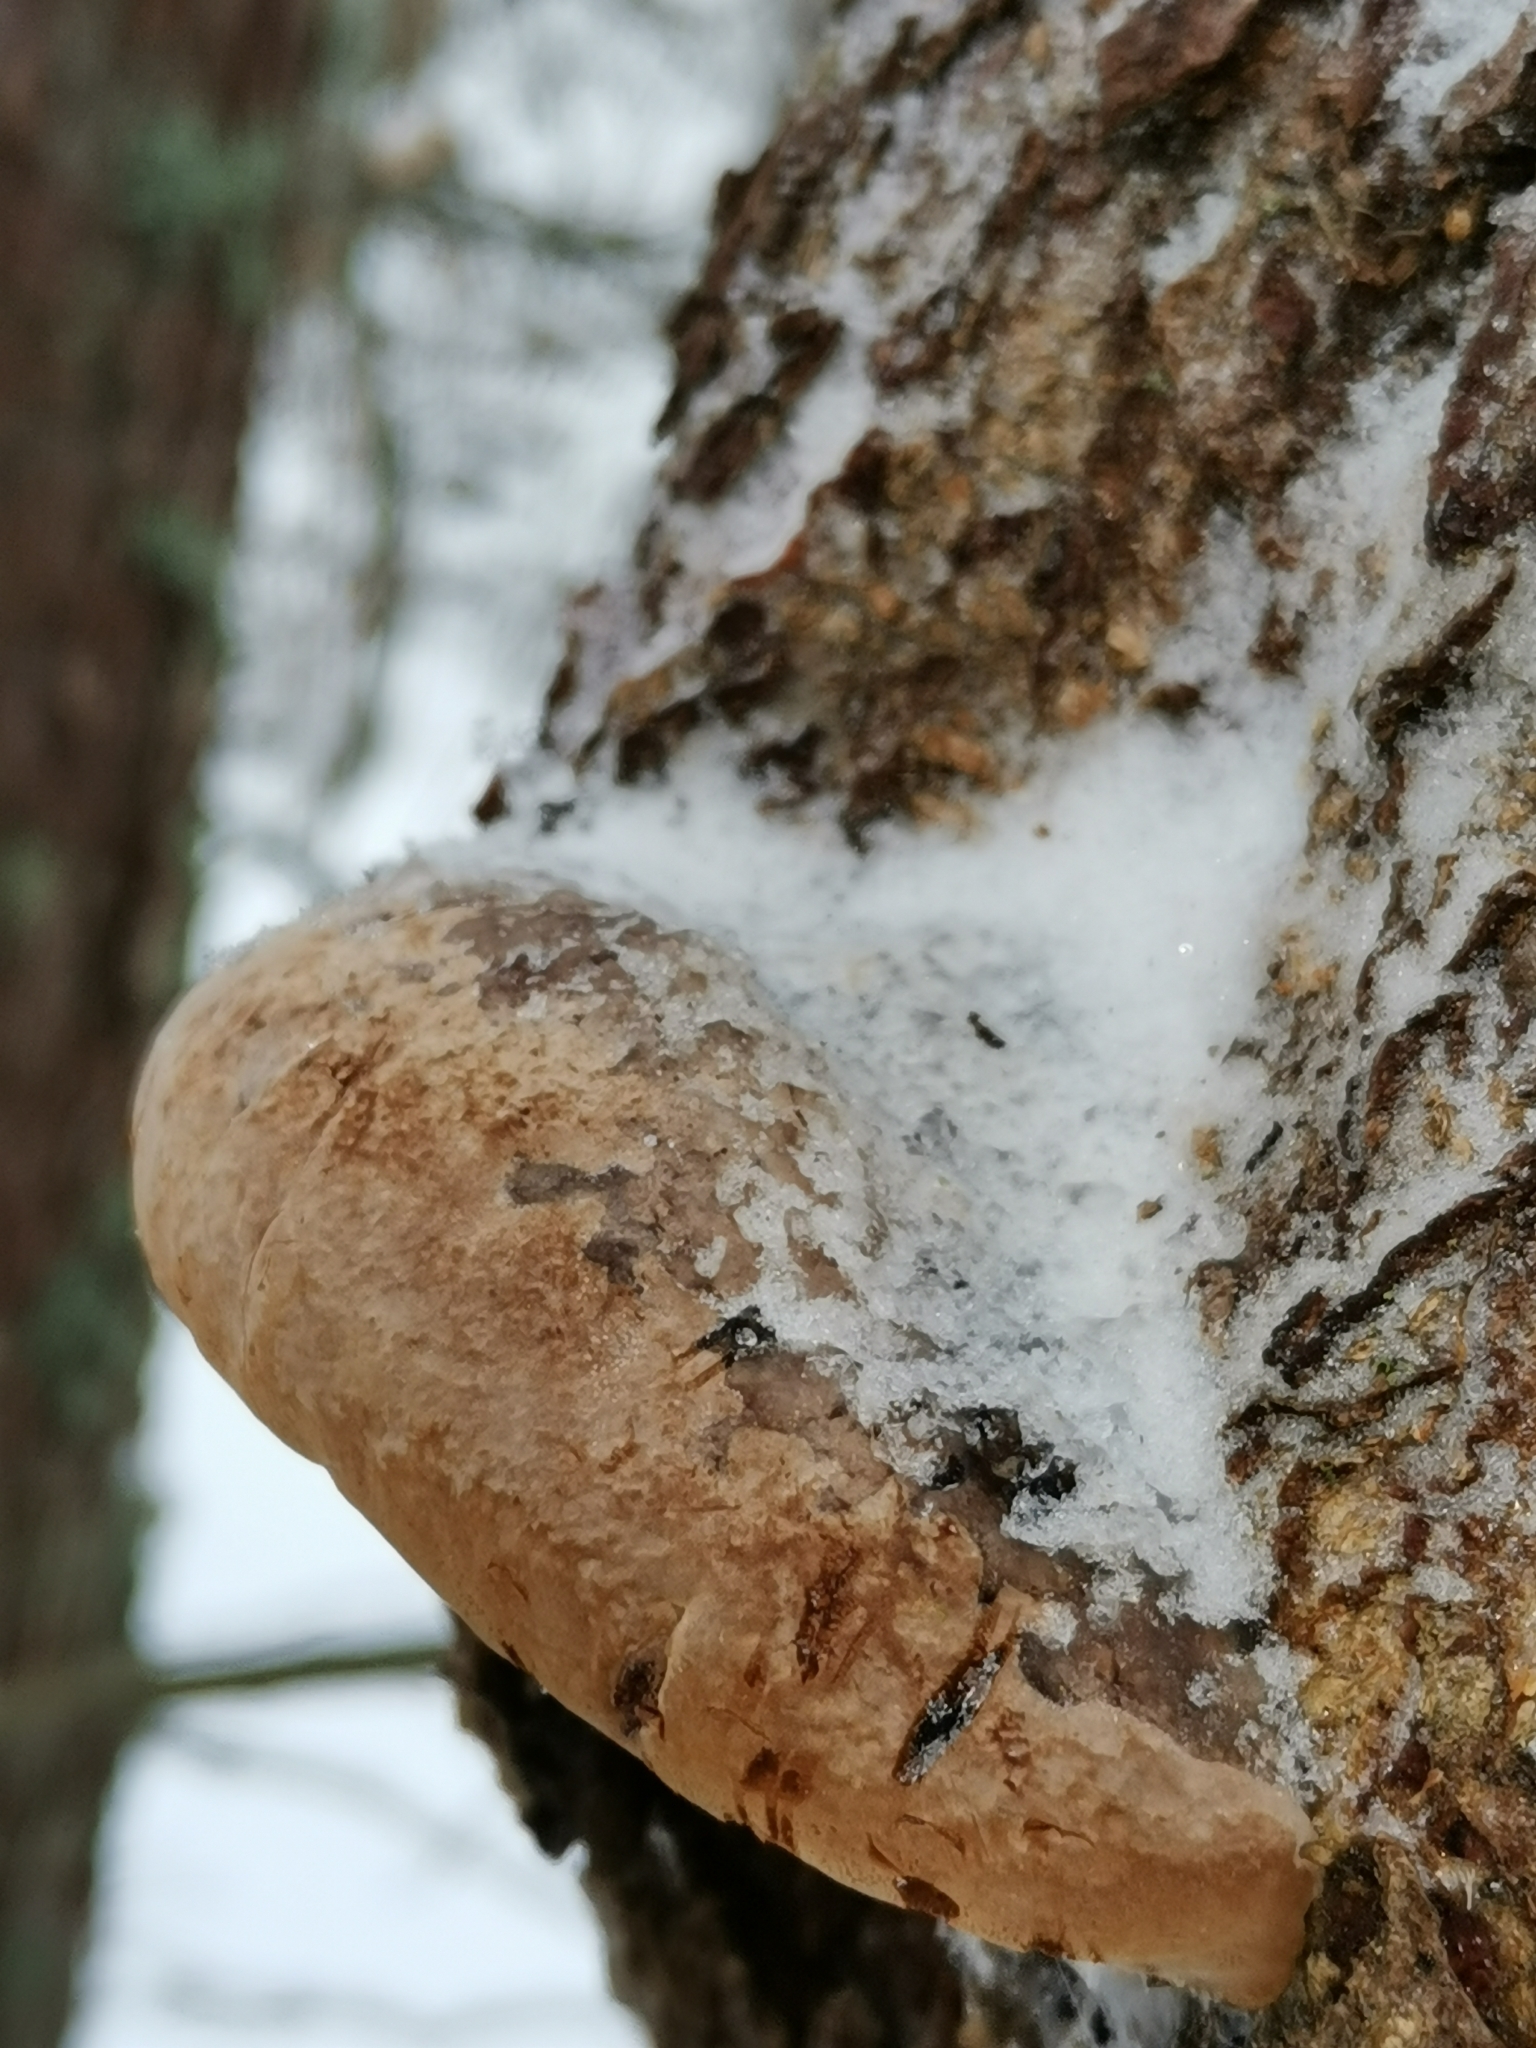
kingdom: Fungi
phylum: Basidiomycota
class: Agaricomycetes
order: Hymenochaetales
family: Hymenochaetaceae
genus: Phellinus
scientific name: Phellinus igniarius
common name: Willow bracket
